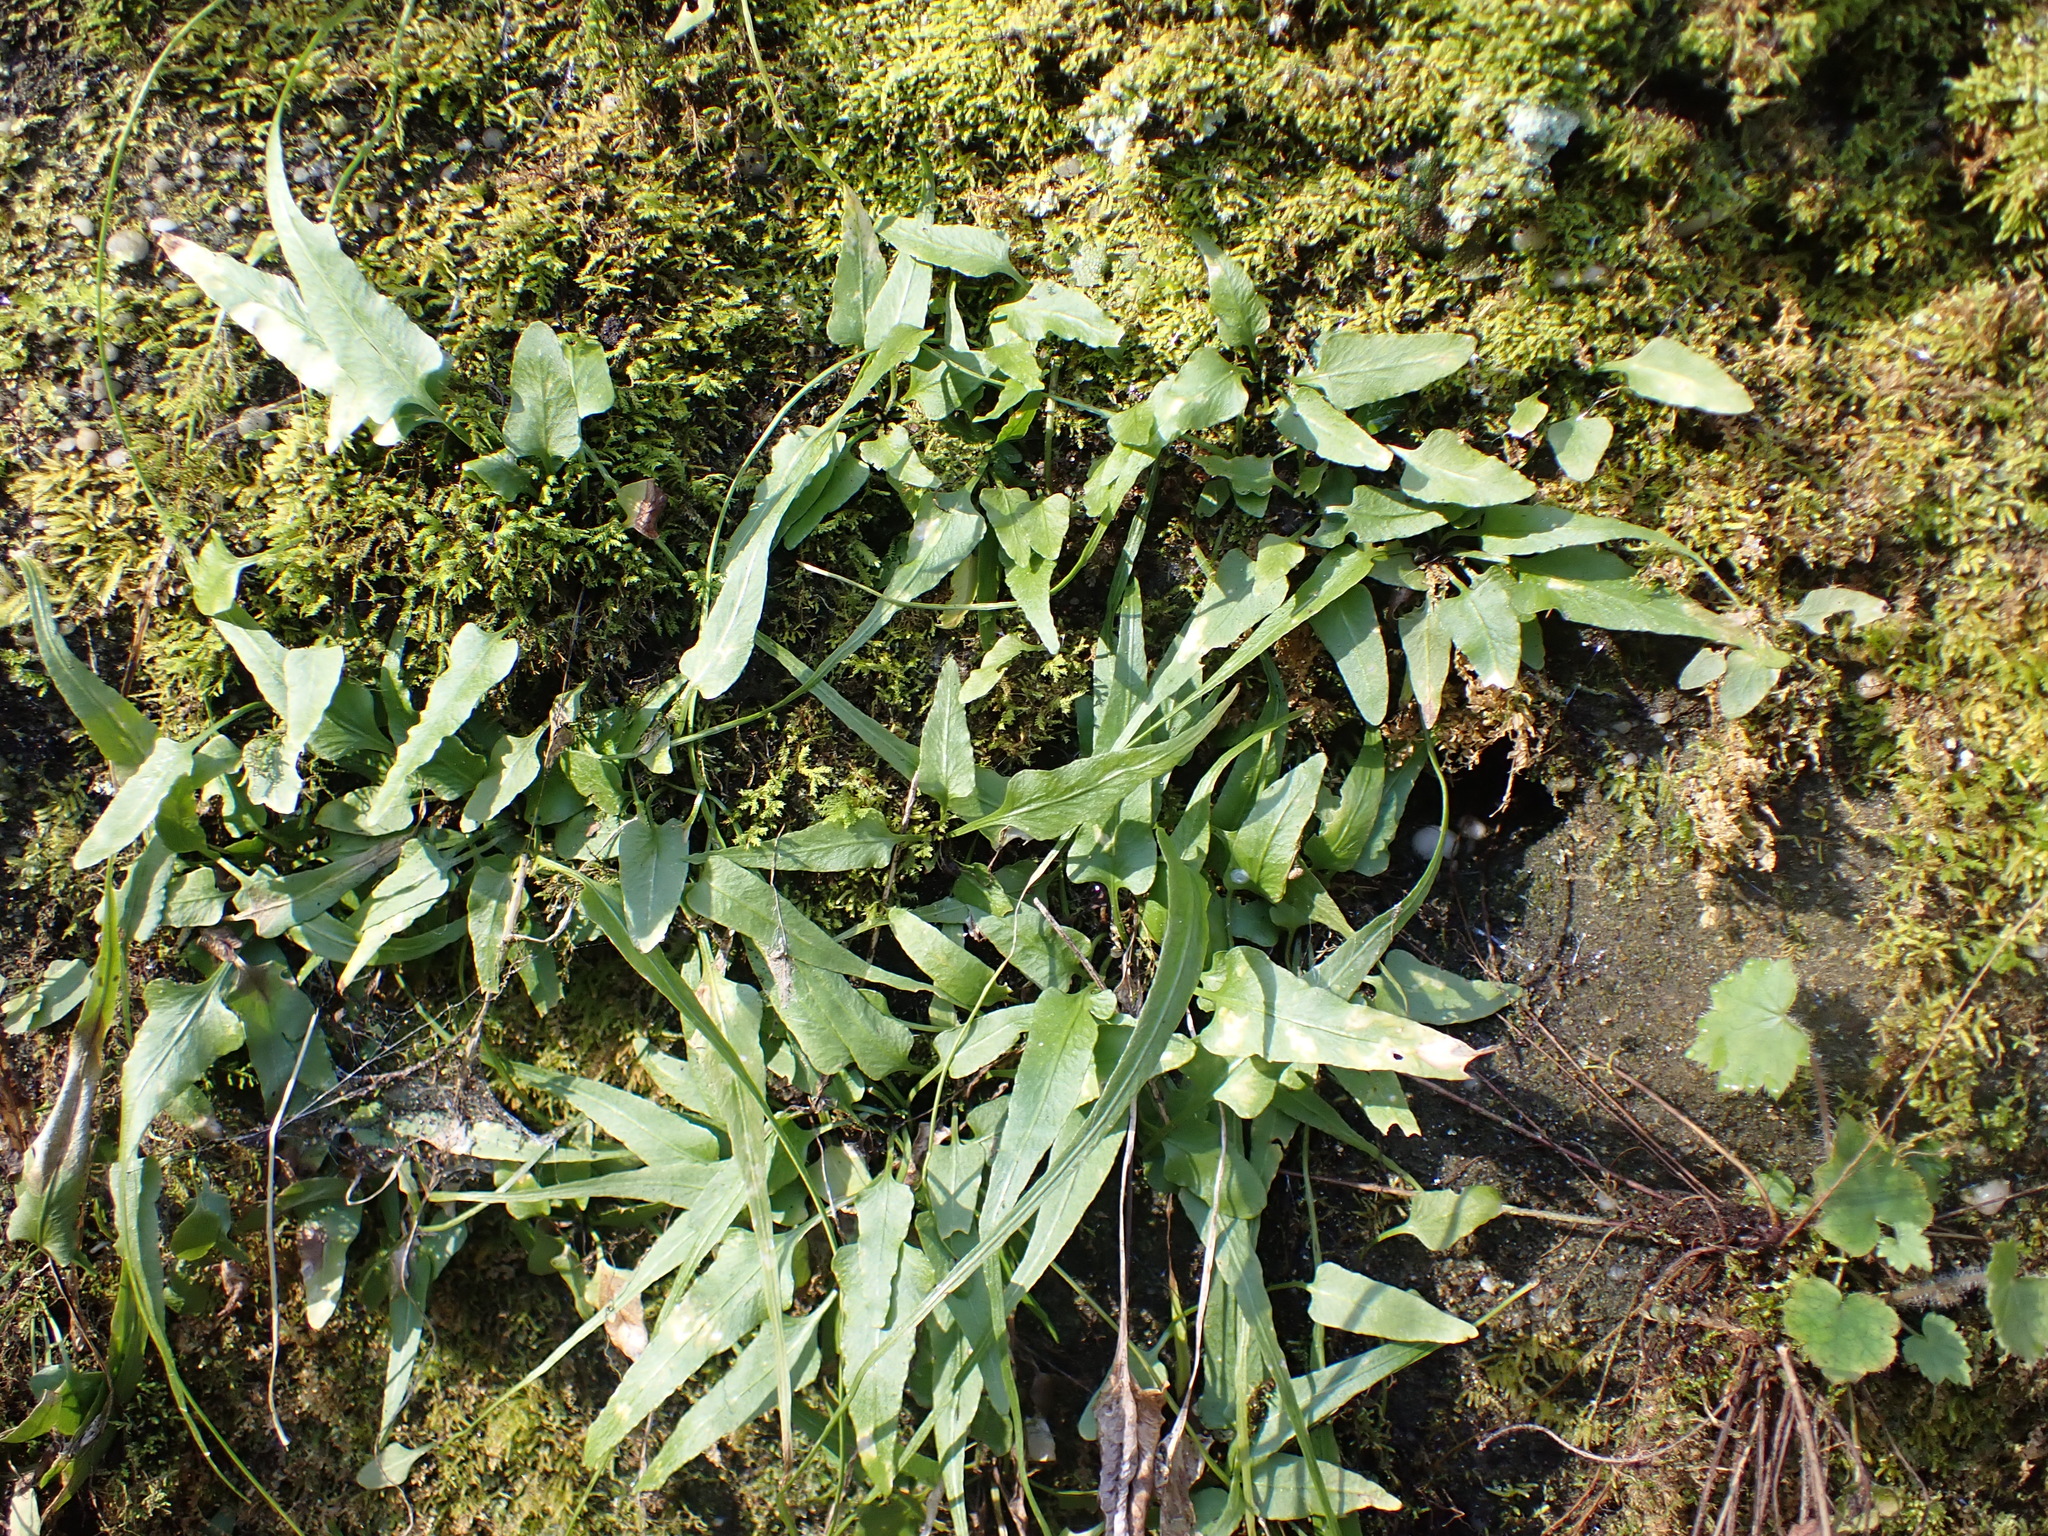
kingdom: Plantae
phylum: Tracheophyta
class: Polypodiopsida
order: Polypodiales
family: Aspleniaceae
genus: Asplenium
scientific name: Asplenium rhizophyllum
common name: Walking fern
